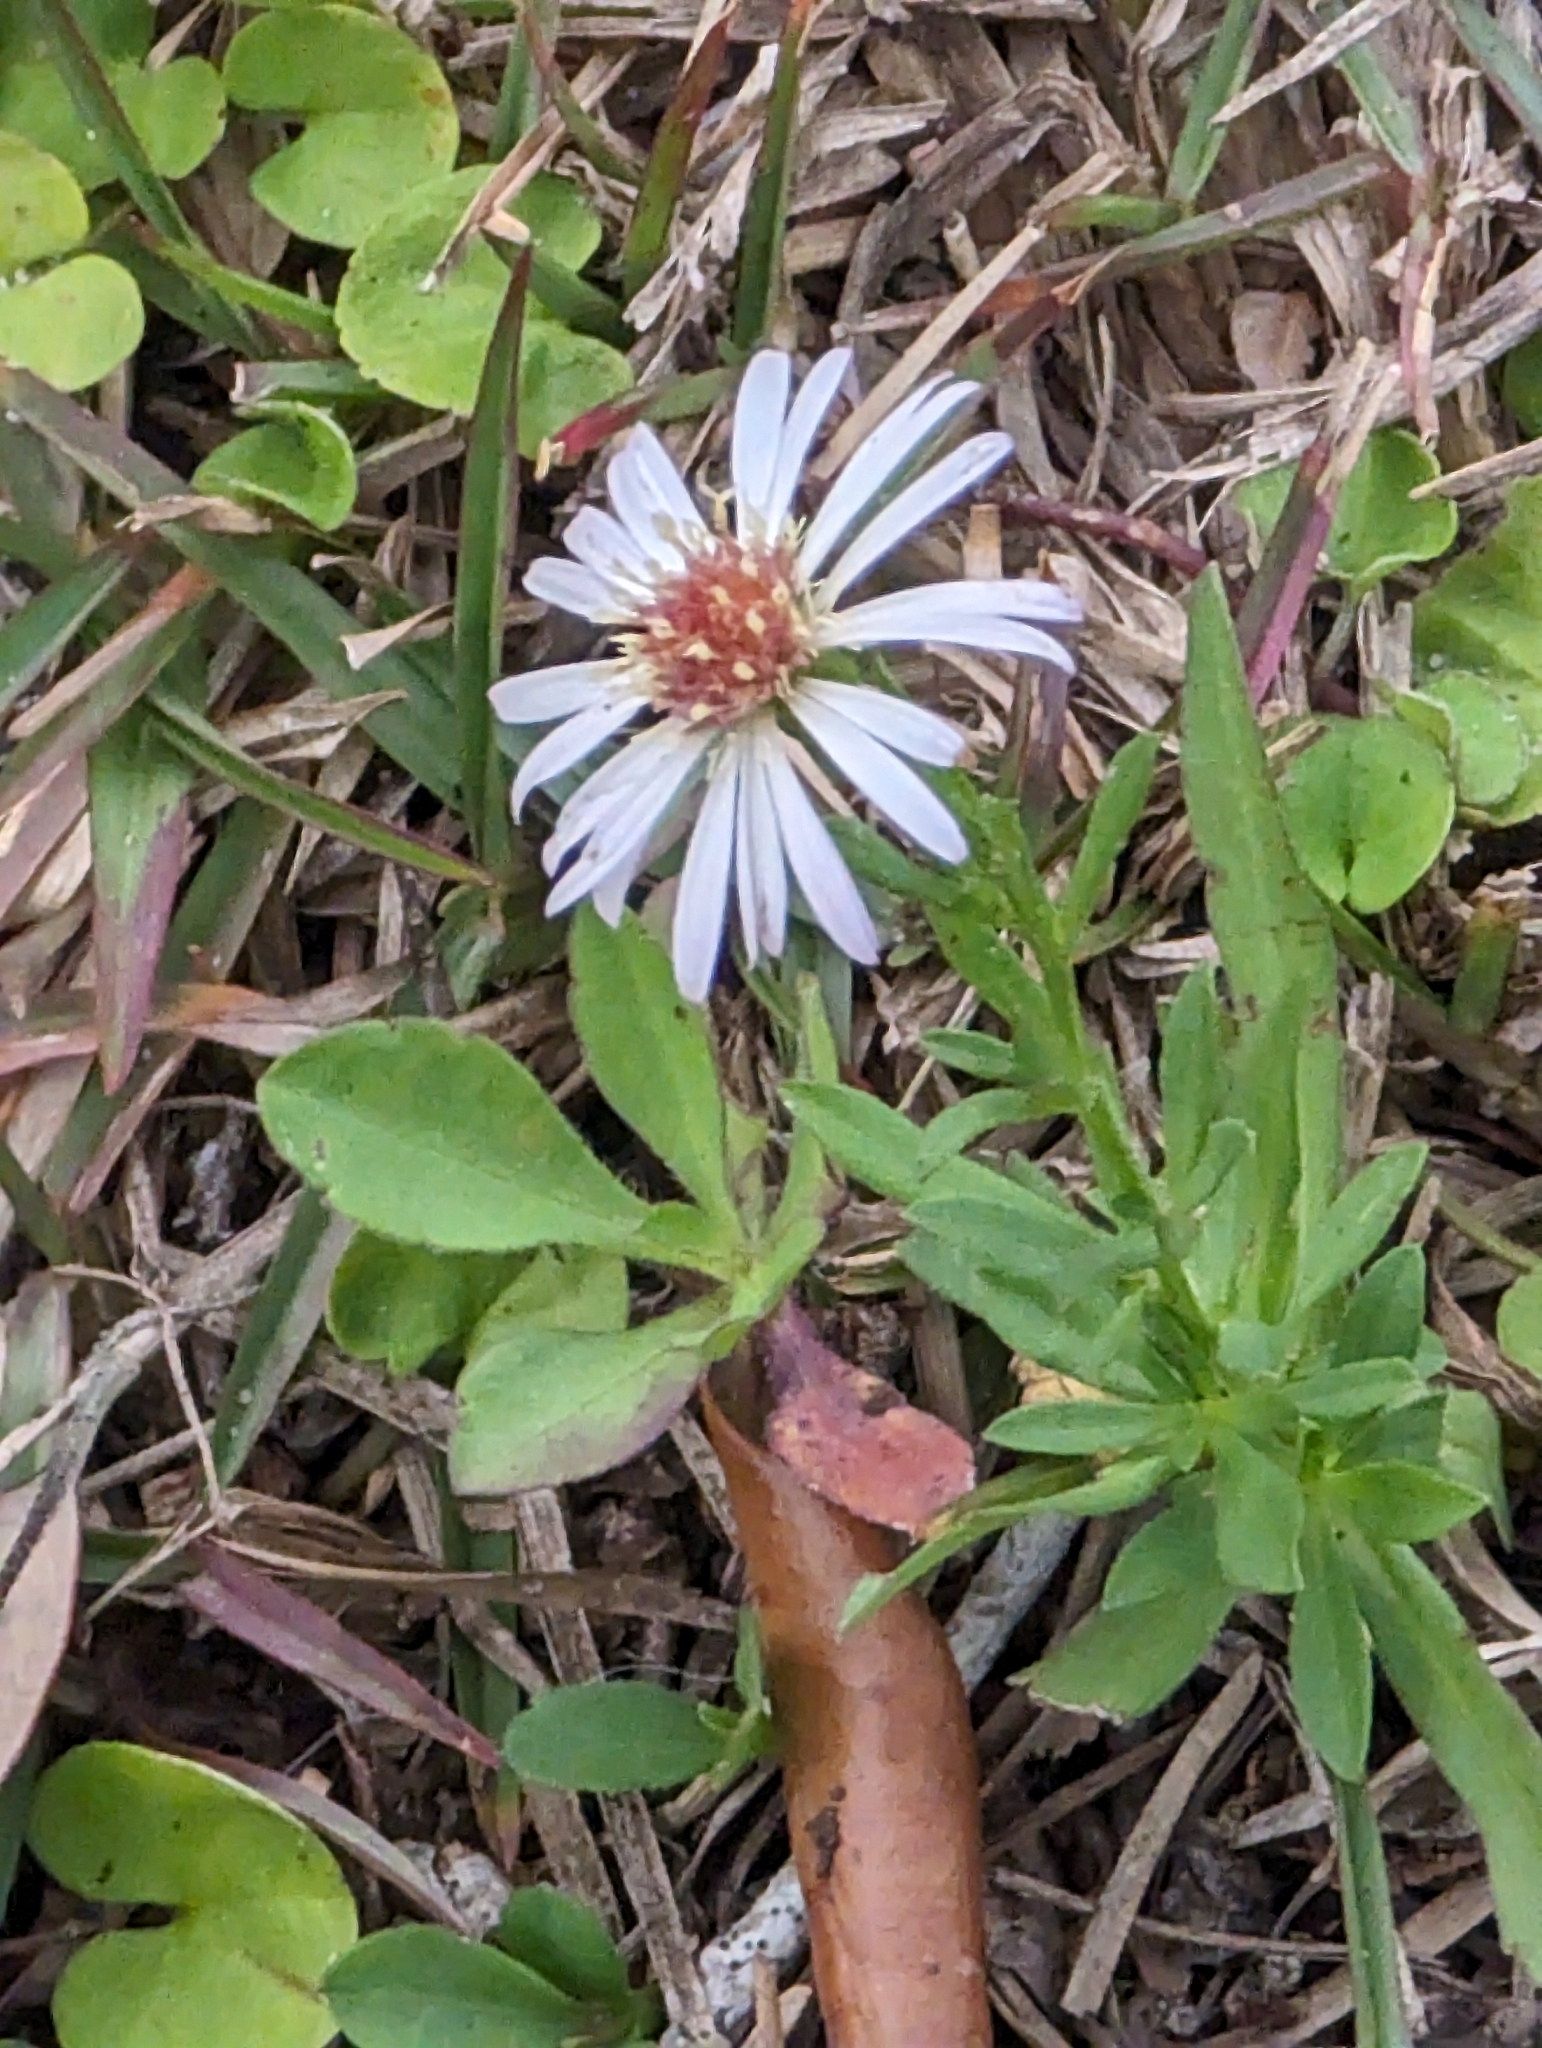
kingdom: Plantae
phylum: Tracheophyta
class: Magnoliopsida
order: Asterales
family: Asteraceae
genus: Symphyotrichum
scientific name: Symphyotrichum simmondsii
